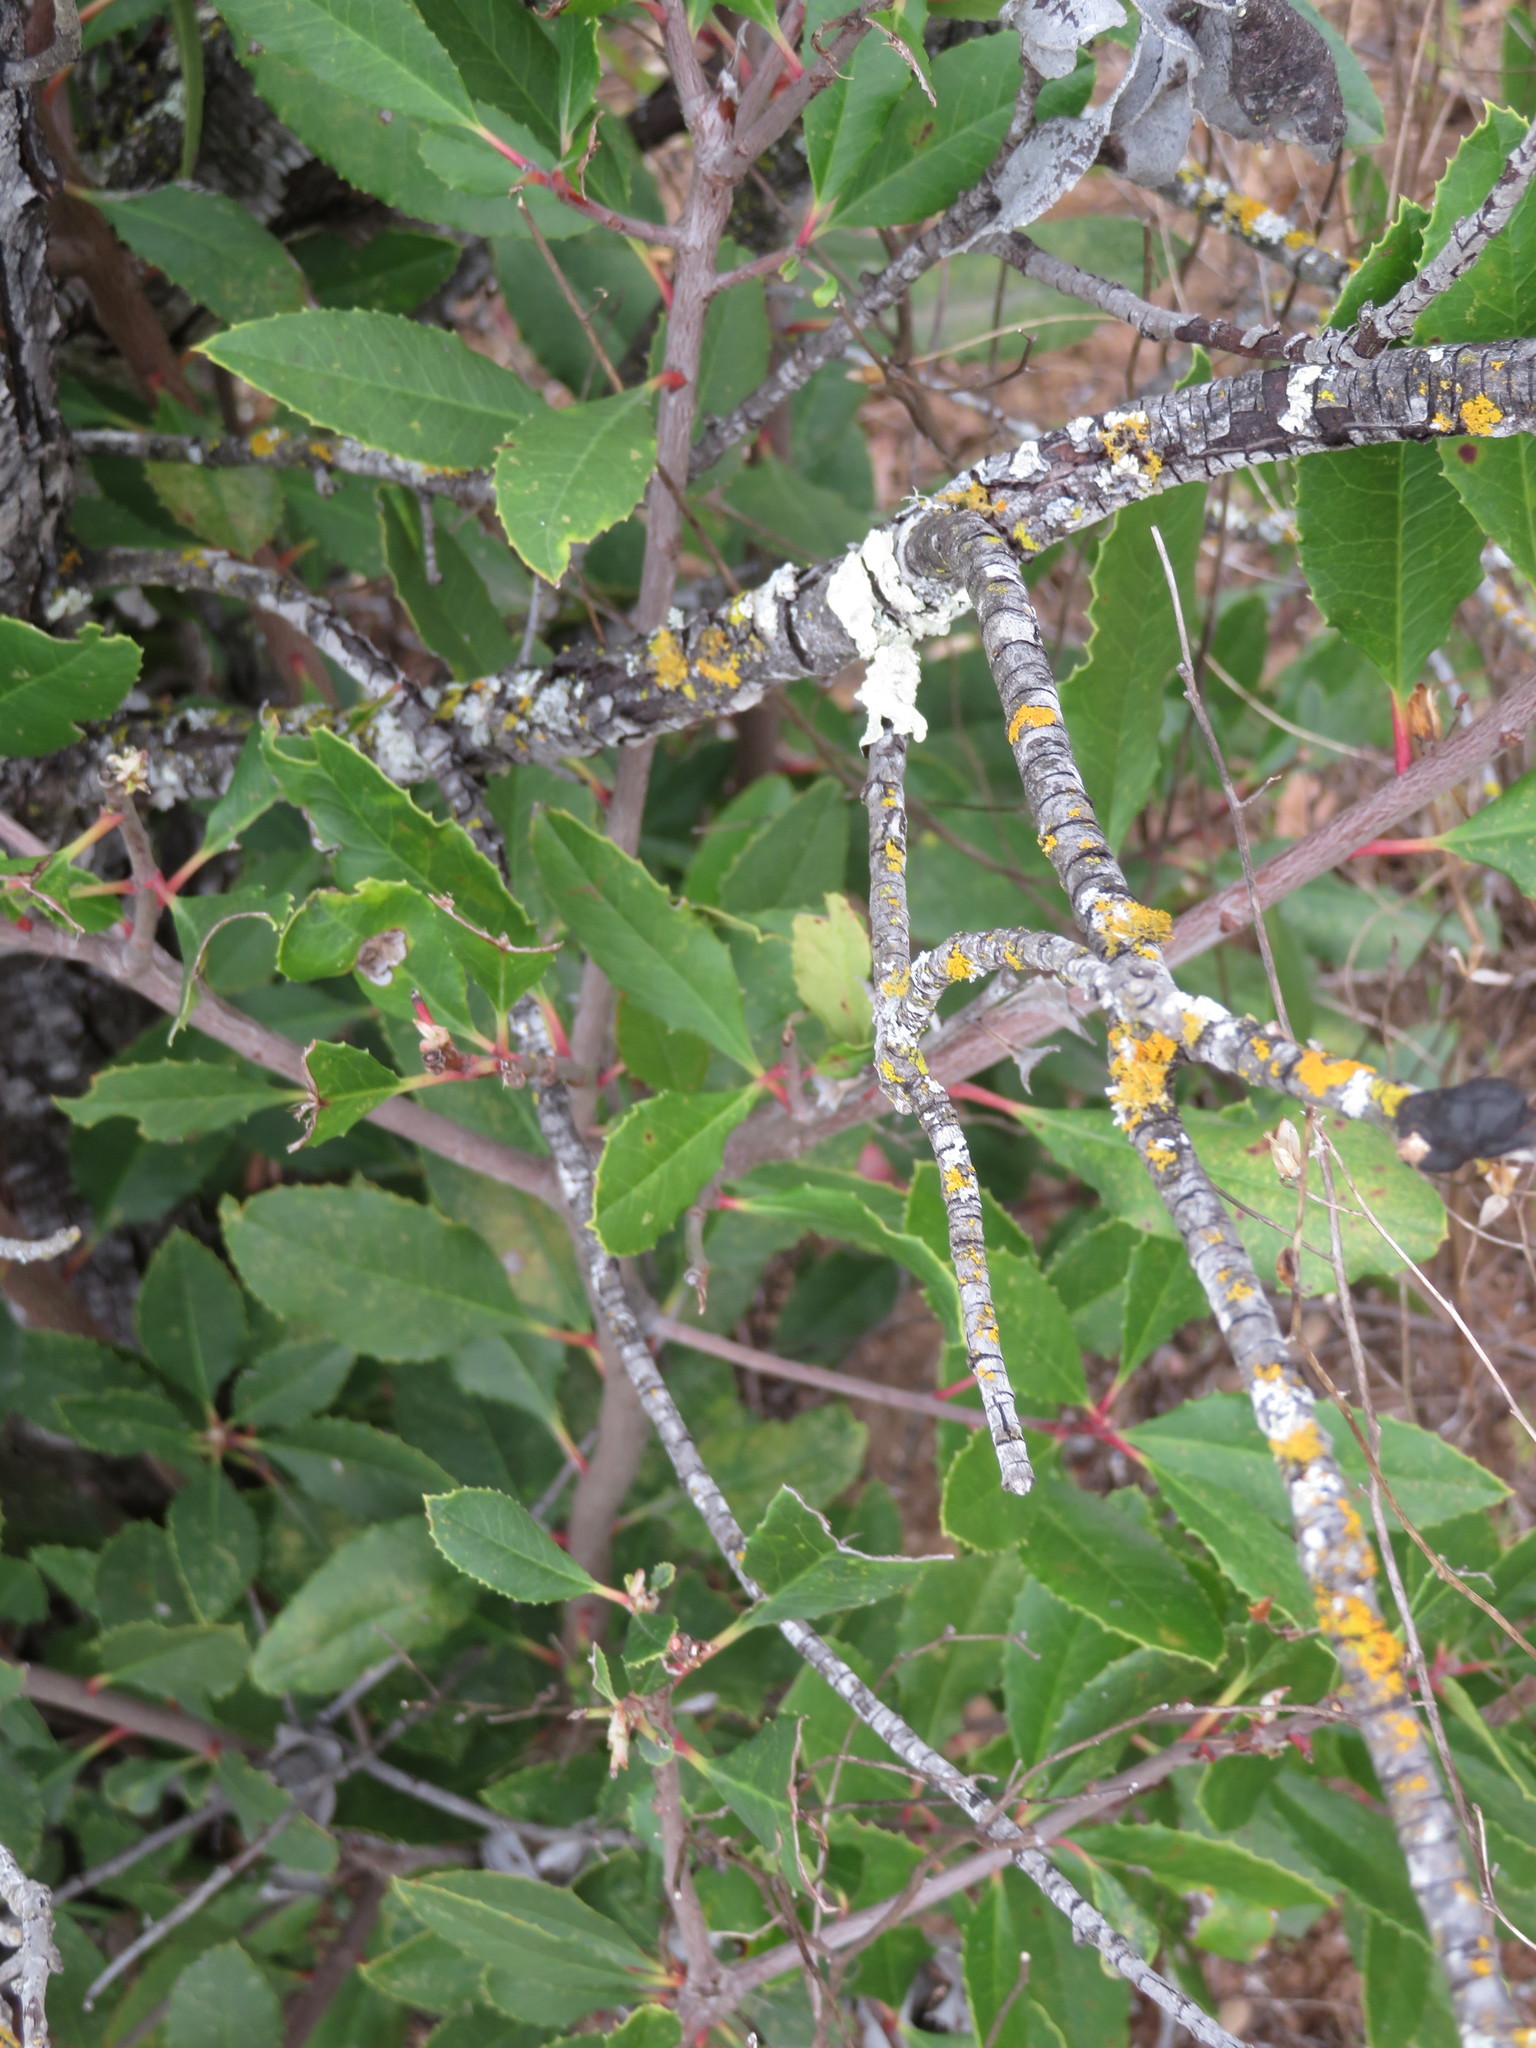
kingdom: Plantae
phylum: Tracheophyta
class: Magnoliopsida
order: Rosales
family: Rosaceae
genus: Heteromeles
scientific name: Heteromeles arbutifolia
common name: California-holly
